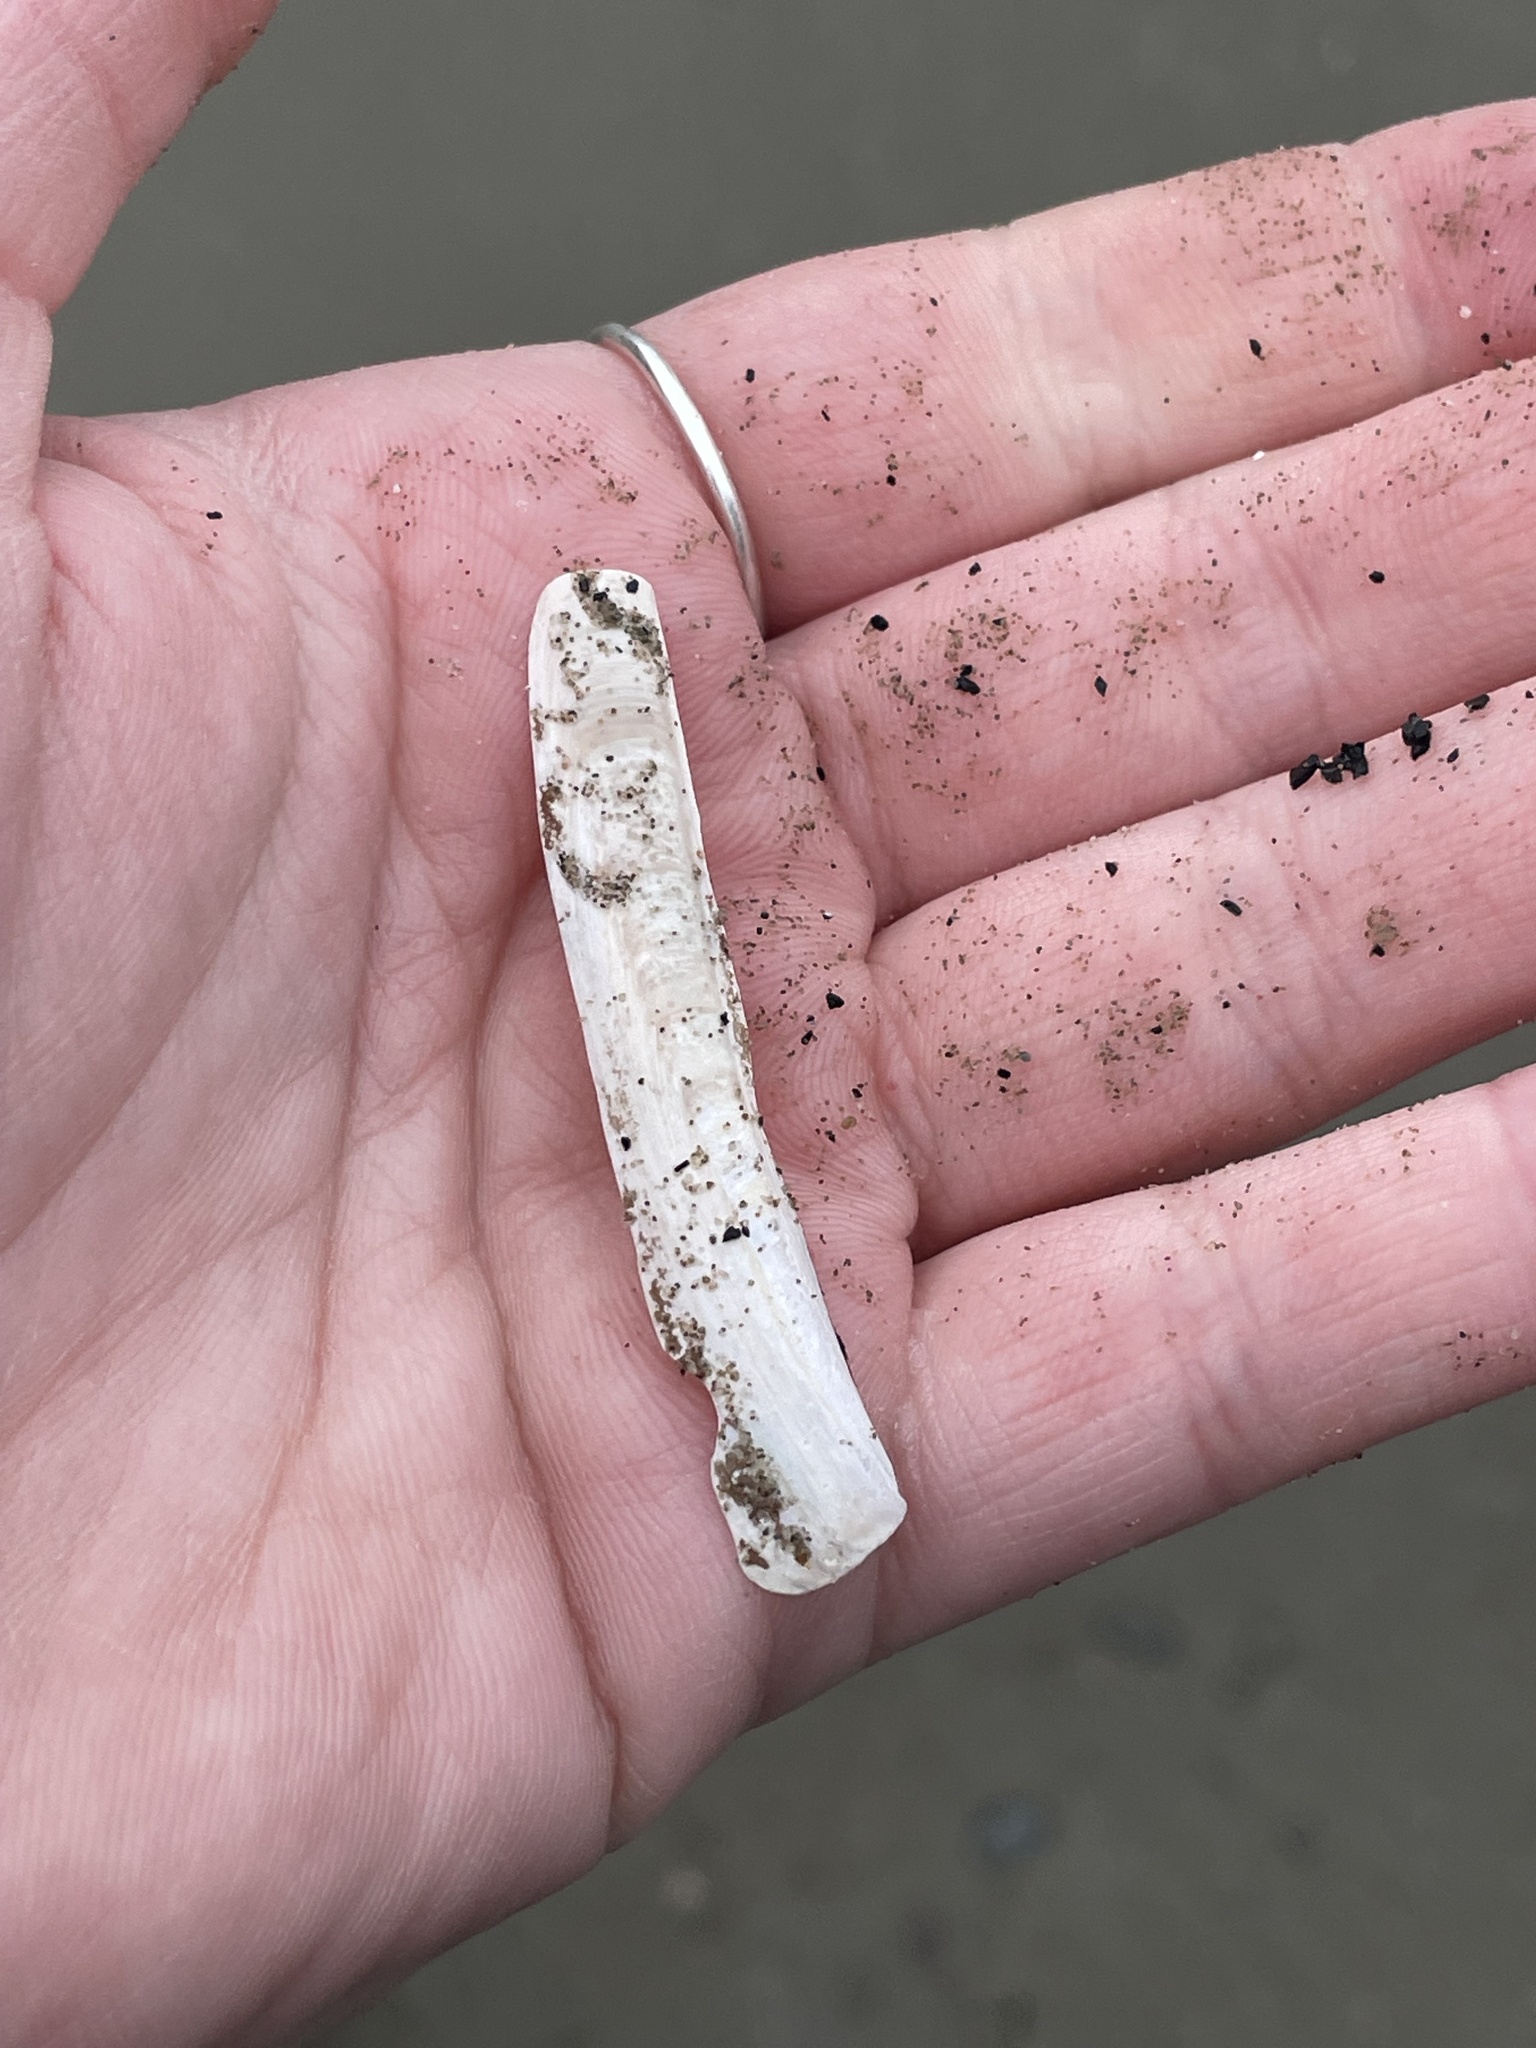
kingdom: Animalia
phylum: Mollusca
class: Bivalvia
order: Adapedonta
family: Pharidae
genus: Ensis
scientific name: Ensis leei
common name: American jack knife clam
